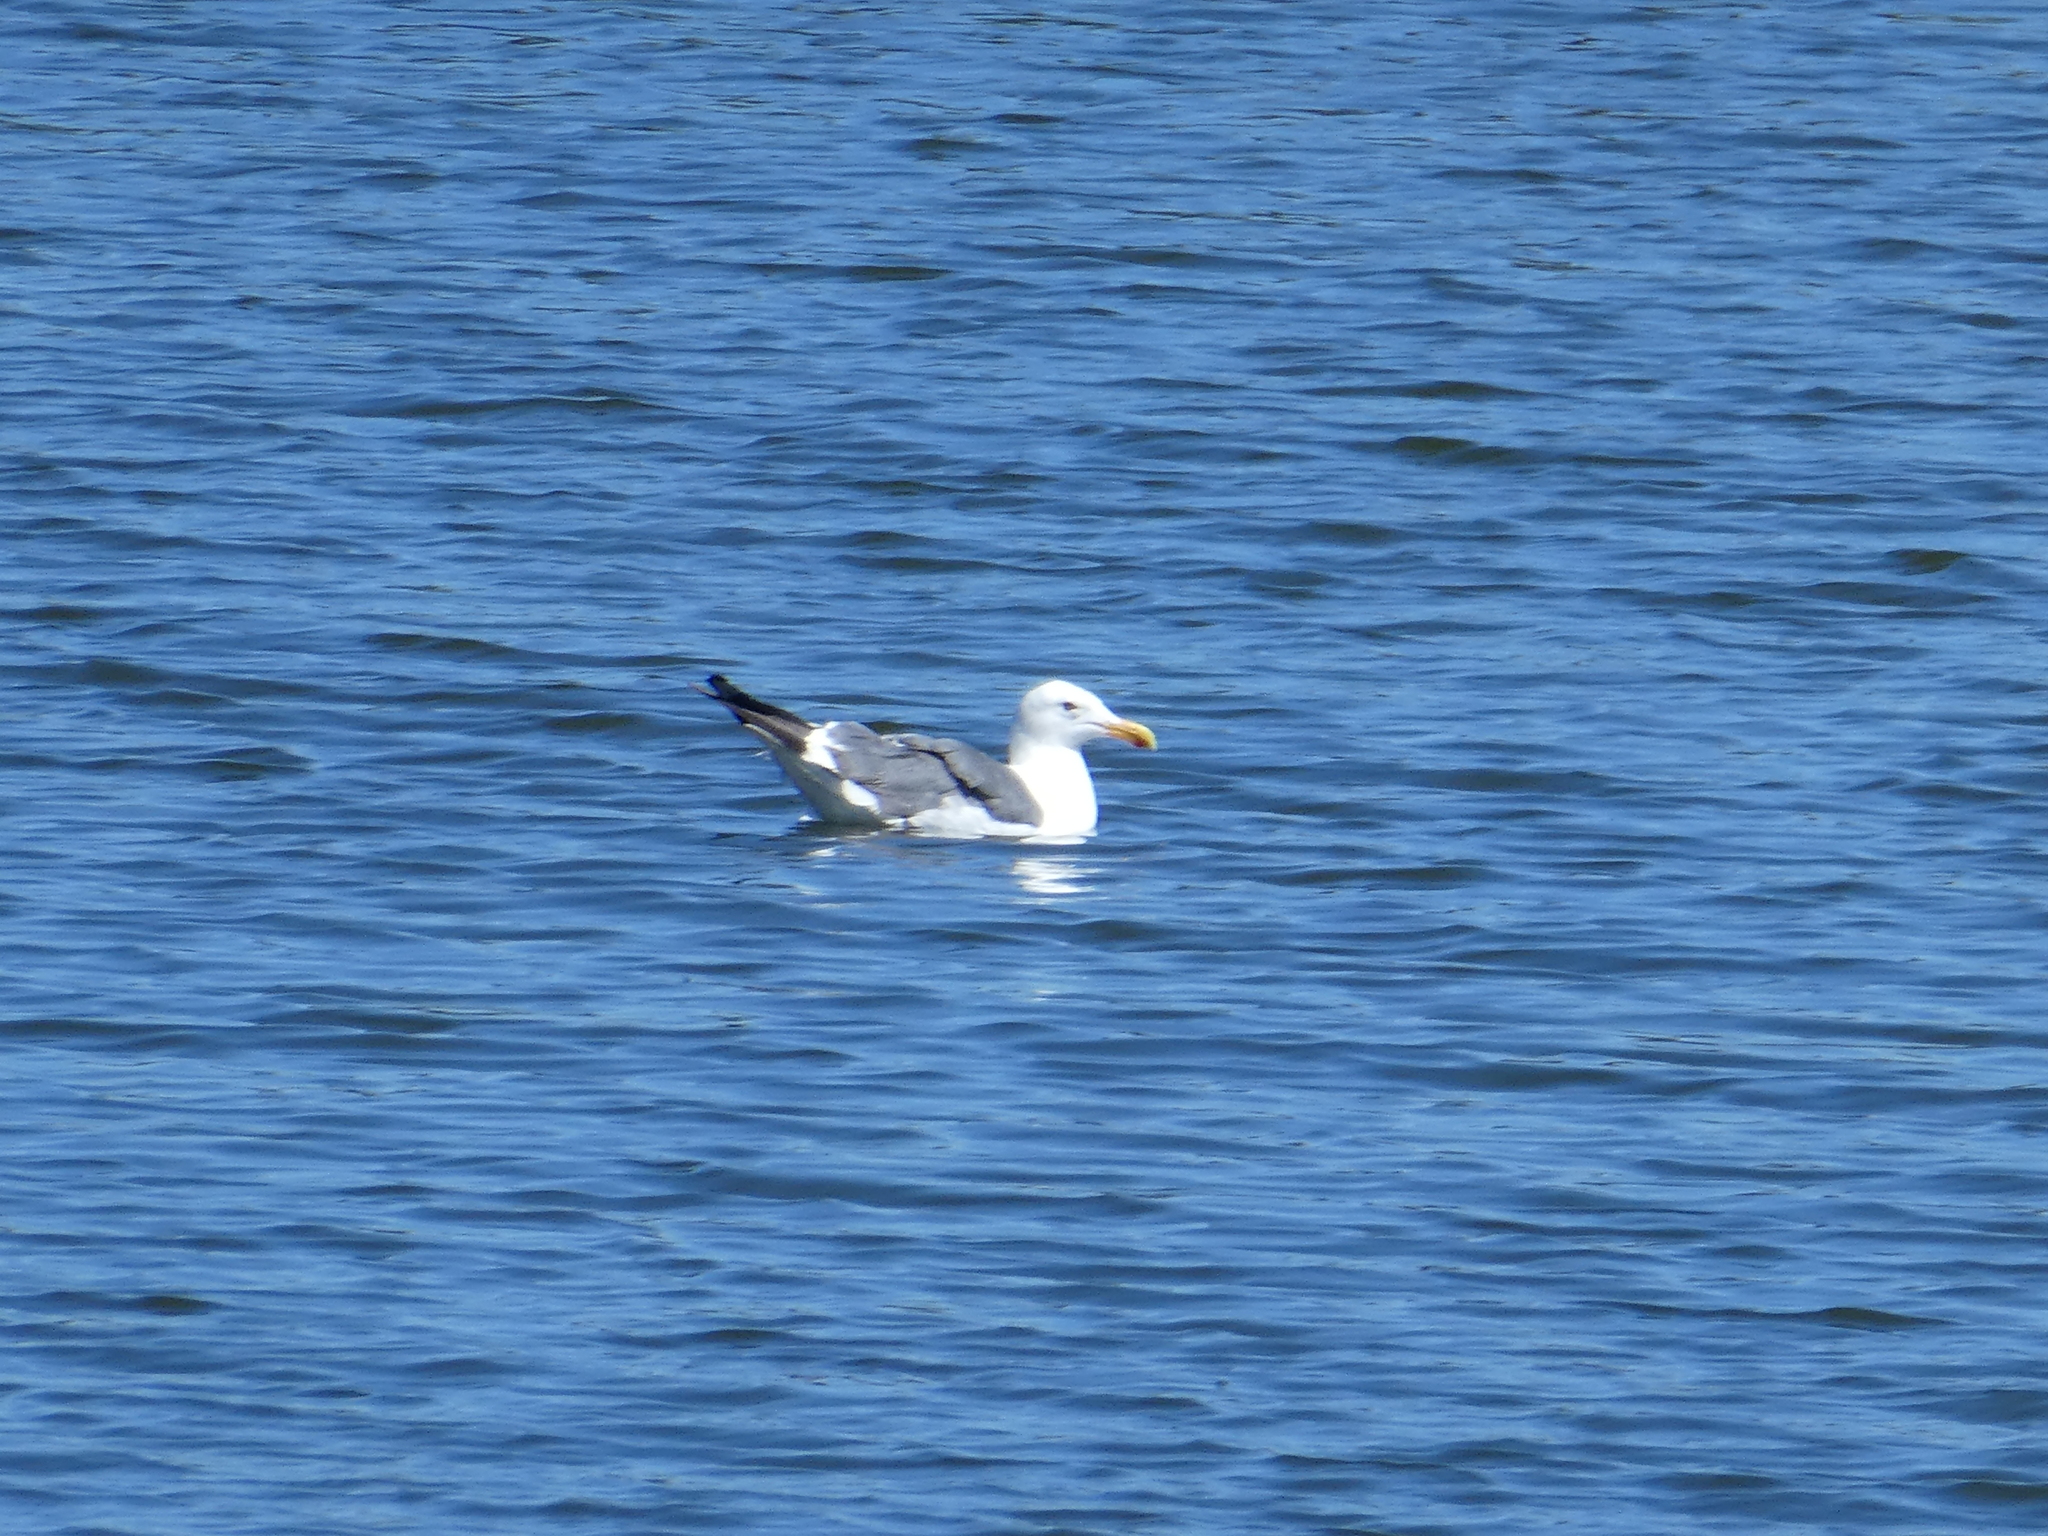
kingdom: Animalia
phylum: Chordata
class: Aves
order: Charadriiformes
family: Laridae
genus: Larus
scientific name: Larus occidentalis
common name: Western gull
